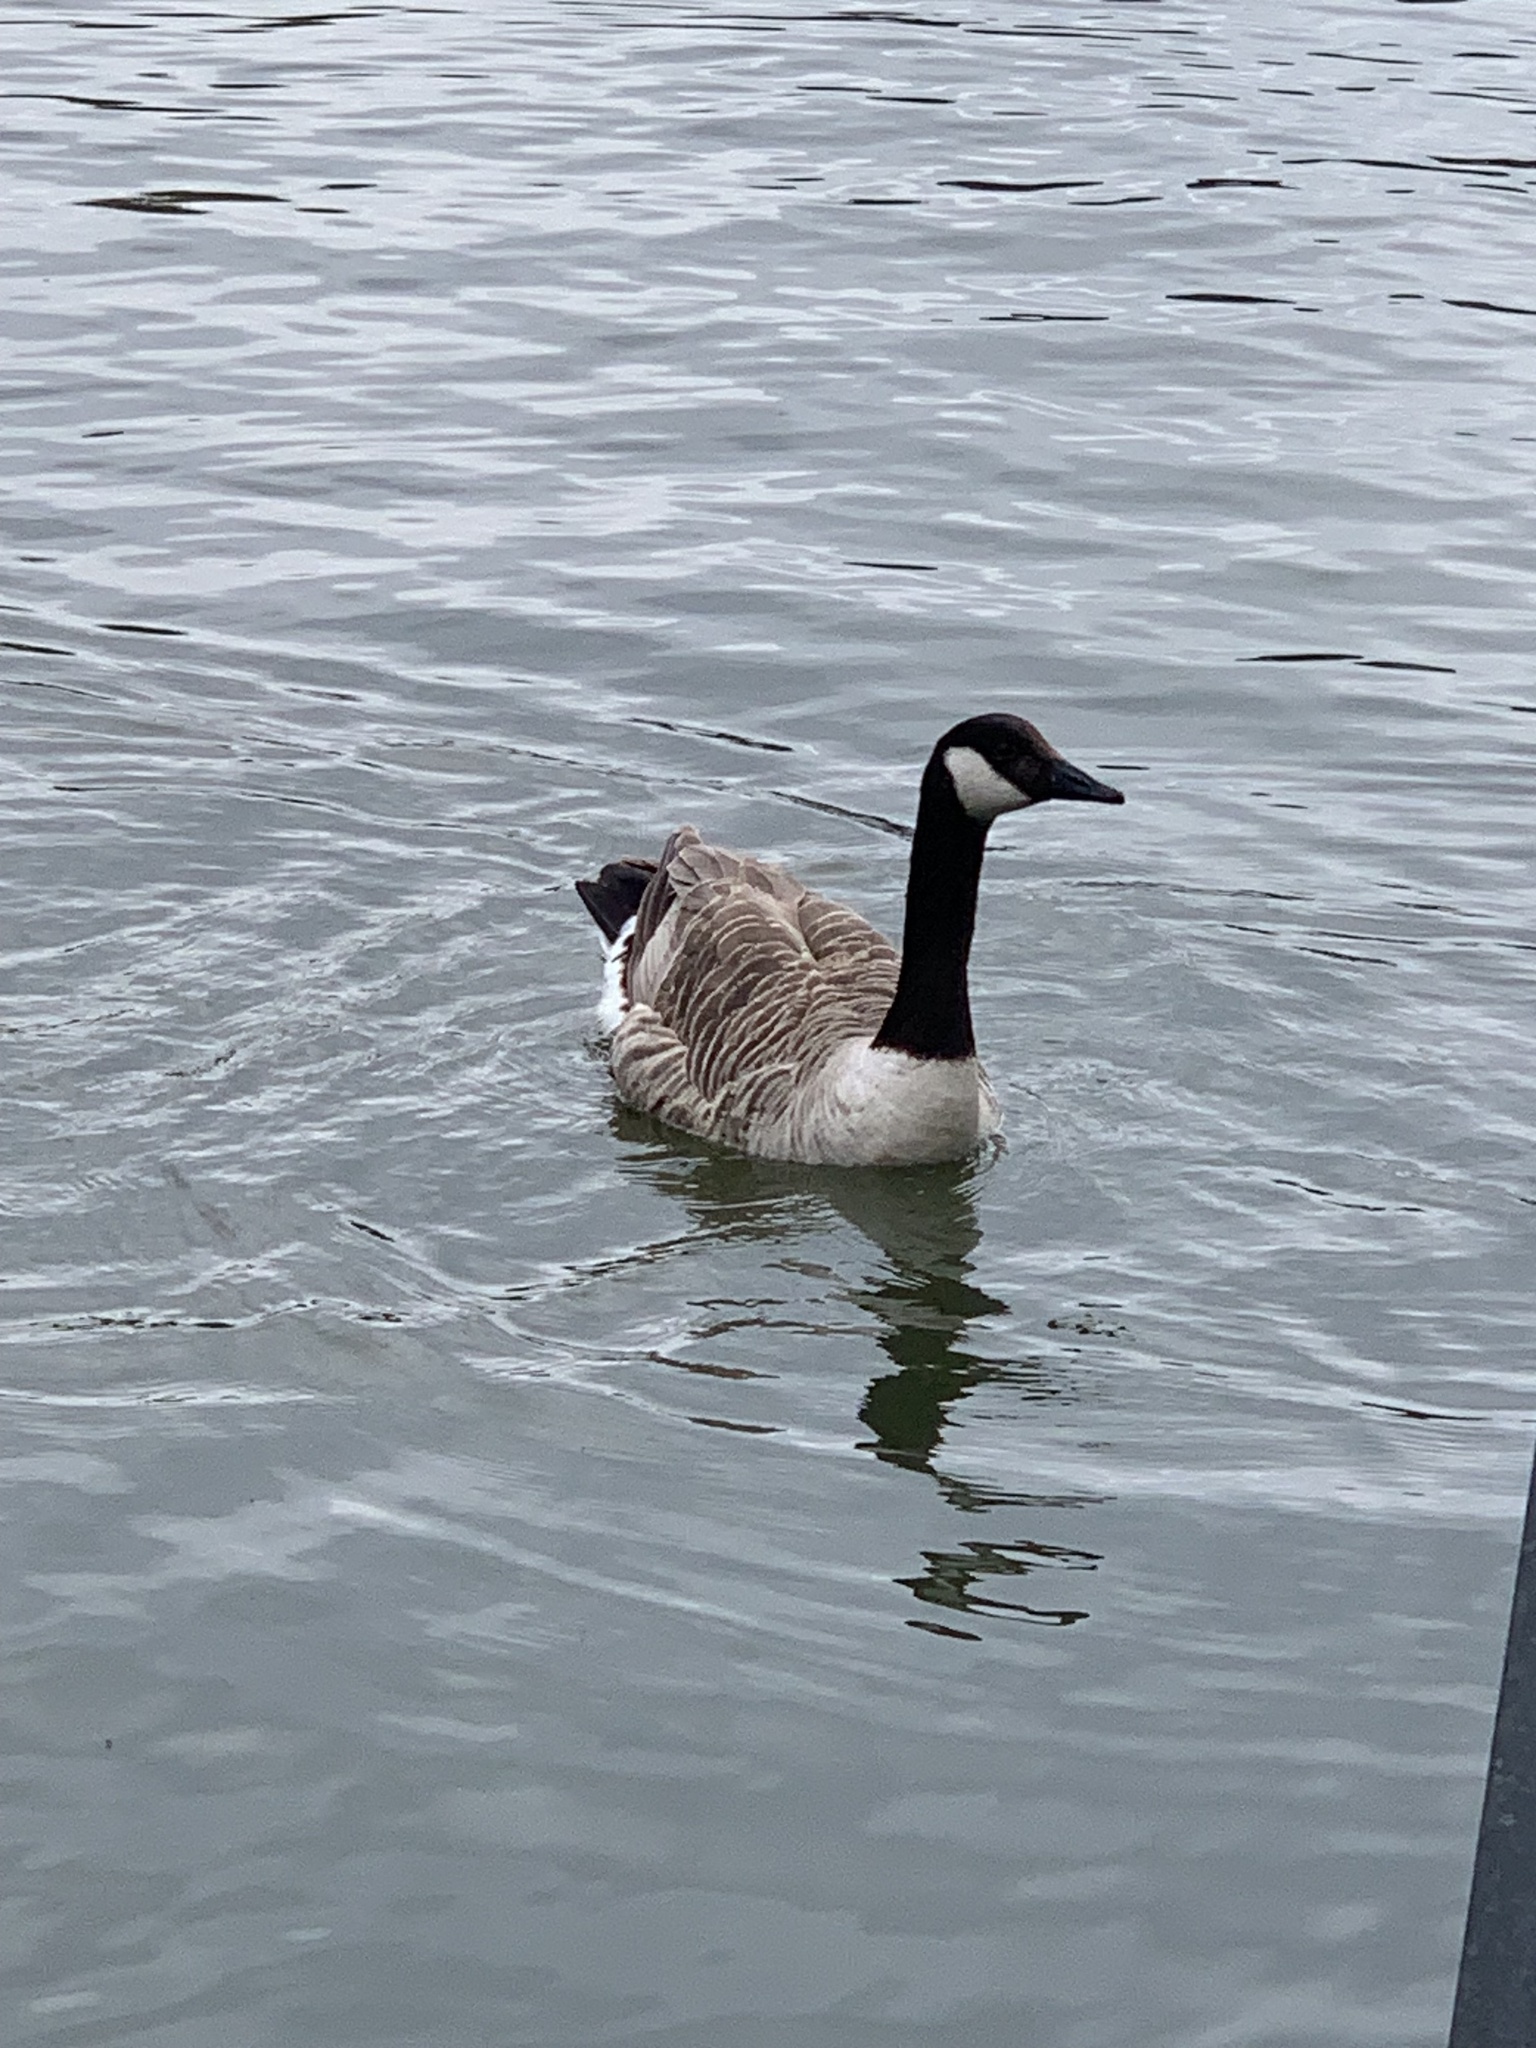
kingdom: Animalia
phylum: Chordata
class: Aves
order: Anseriformes
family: Anatidae
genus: Branta
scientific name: Branta canadensis
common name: Canada goose
